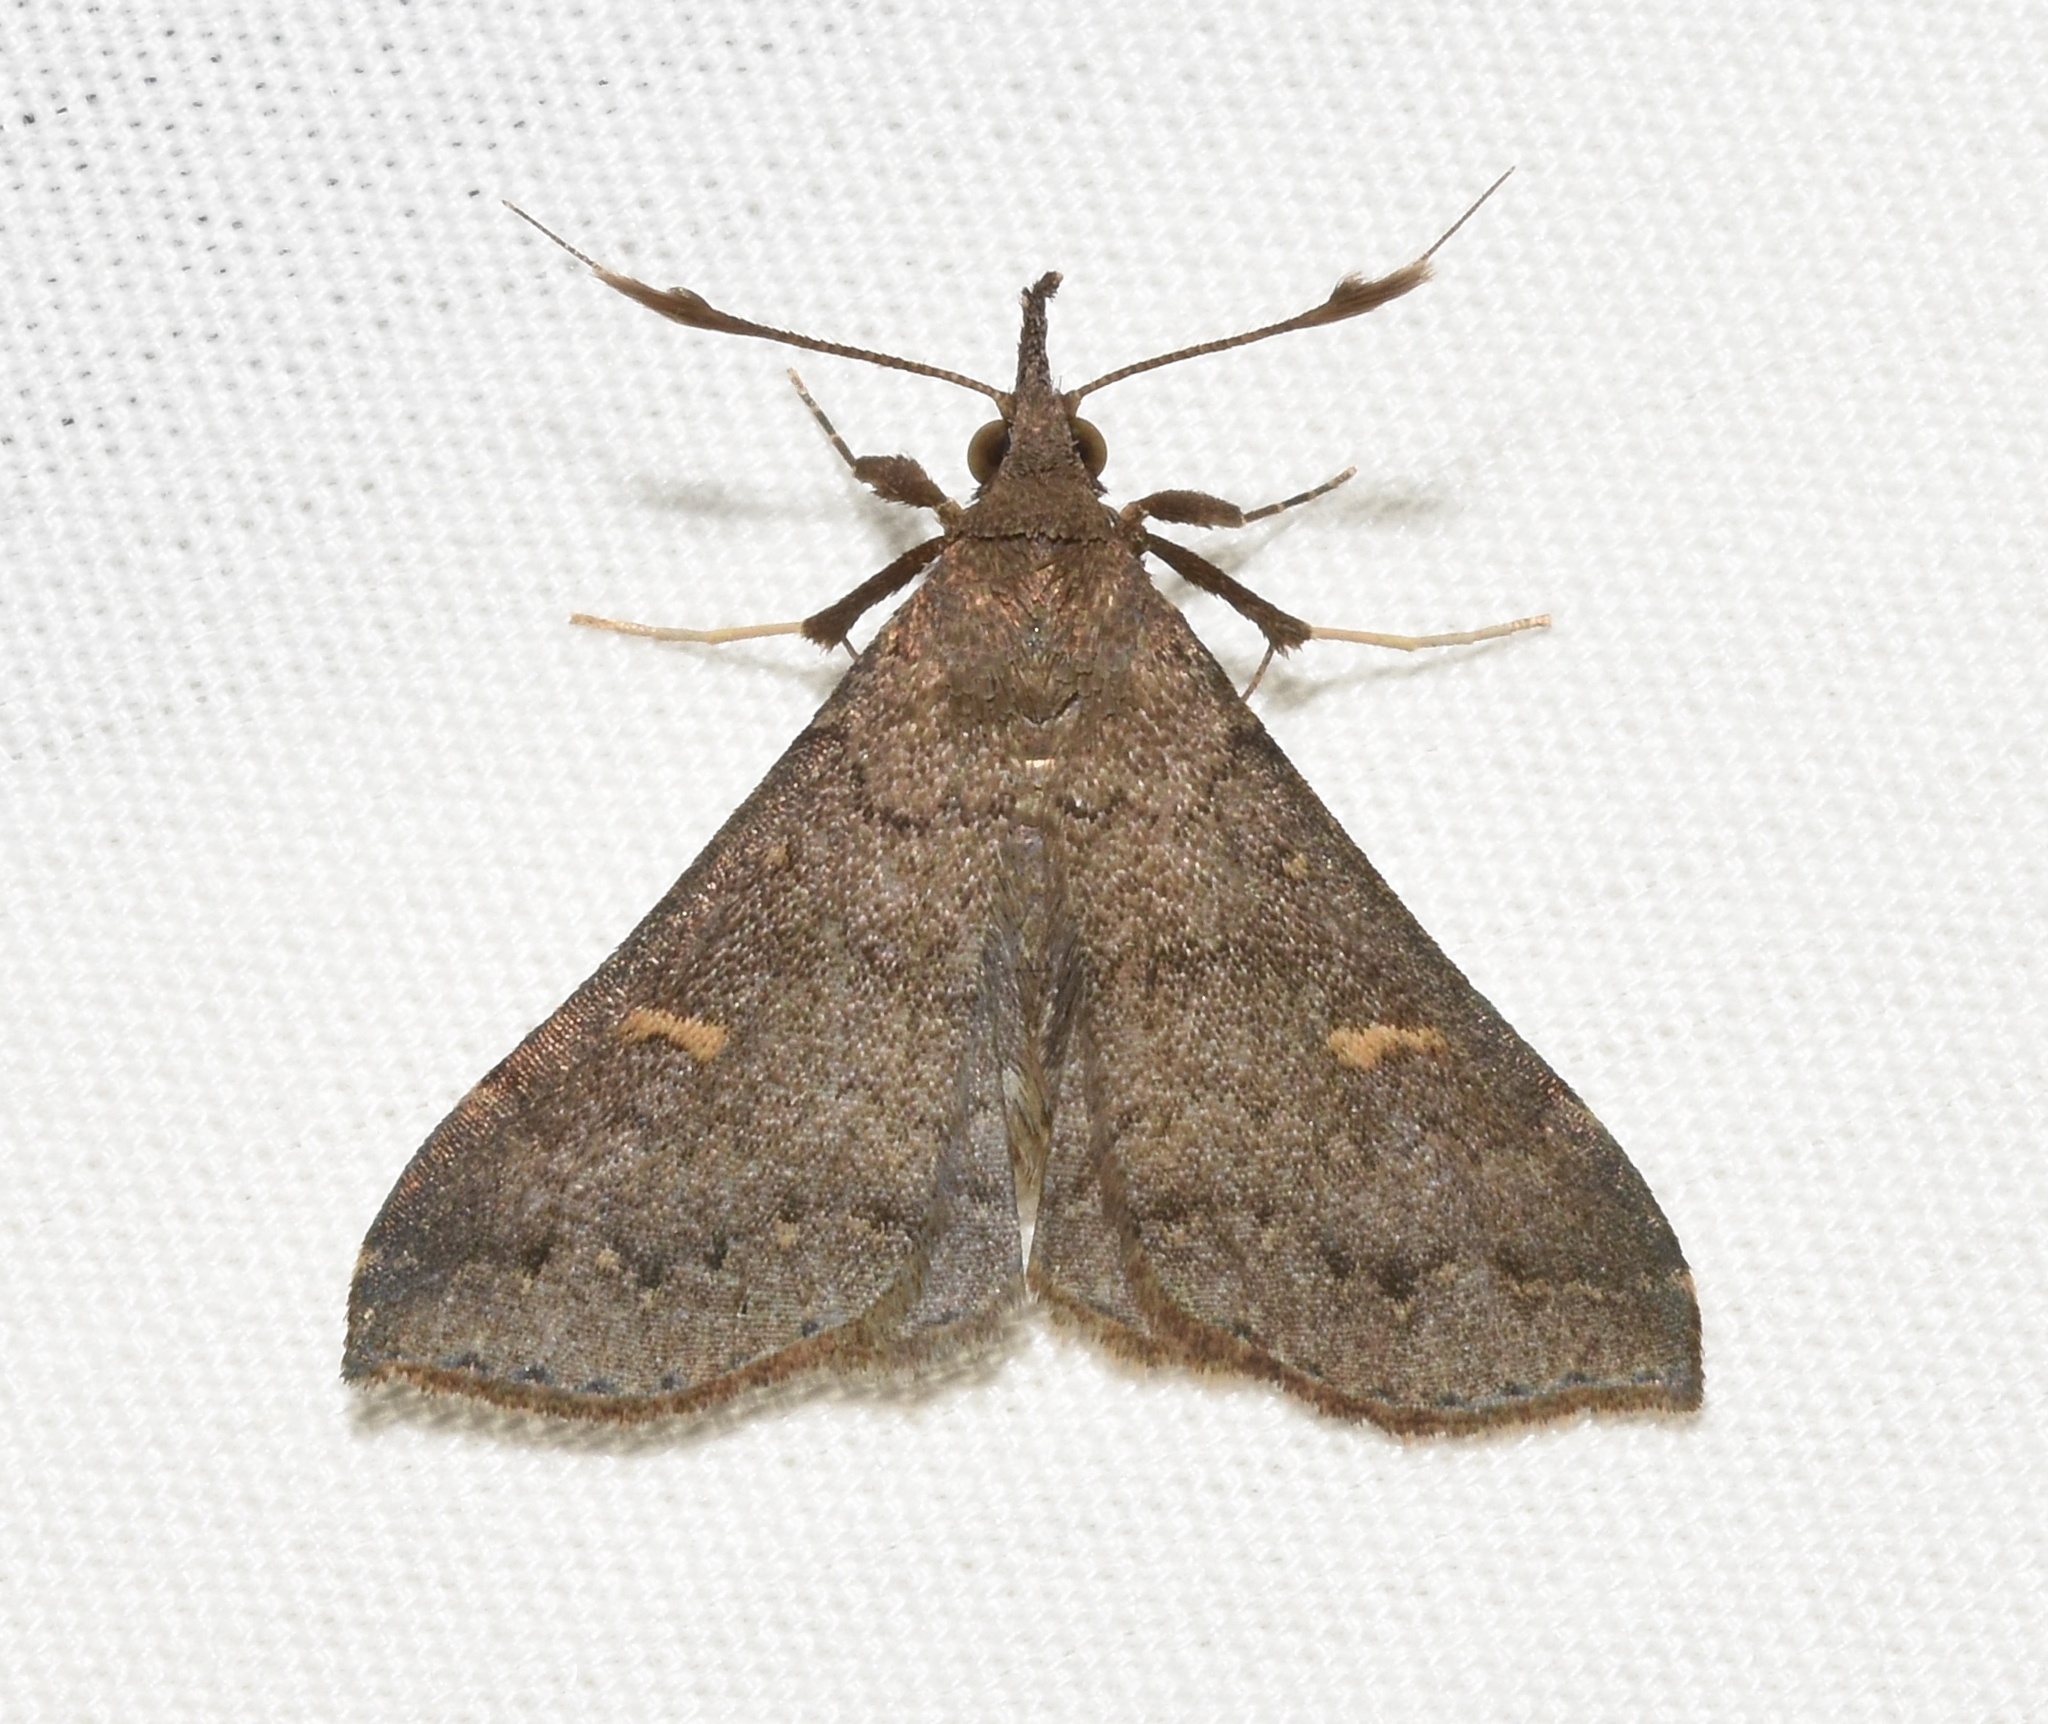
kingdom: Animalia
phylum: Arthropoda
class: Insecta
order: Lepidoptera
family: Erebidae
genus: Renia
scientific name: Renia adspergillus
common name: Speckled renia moth
